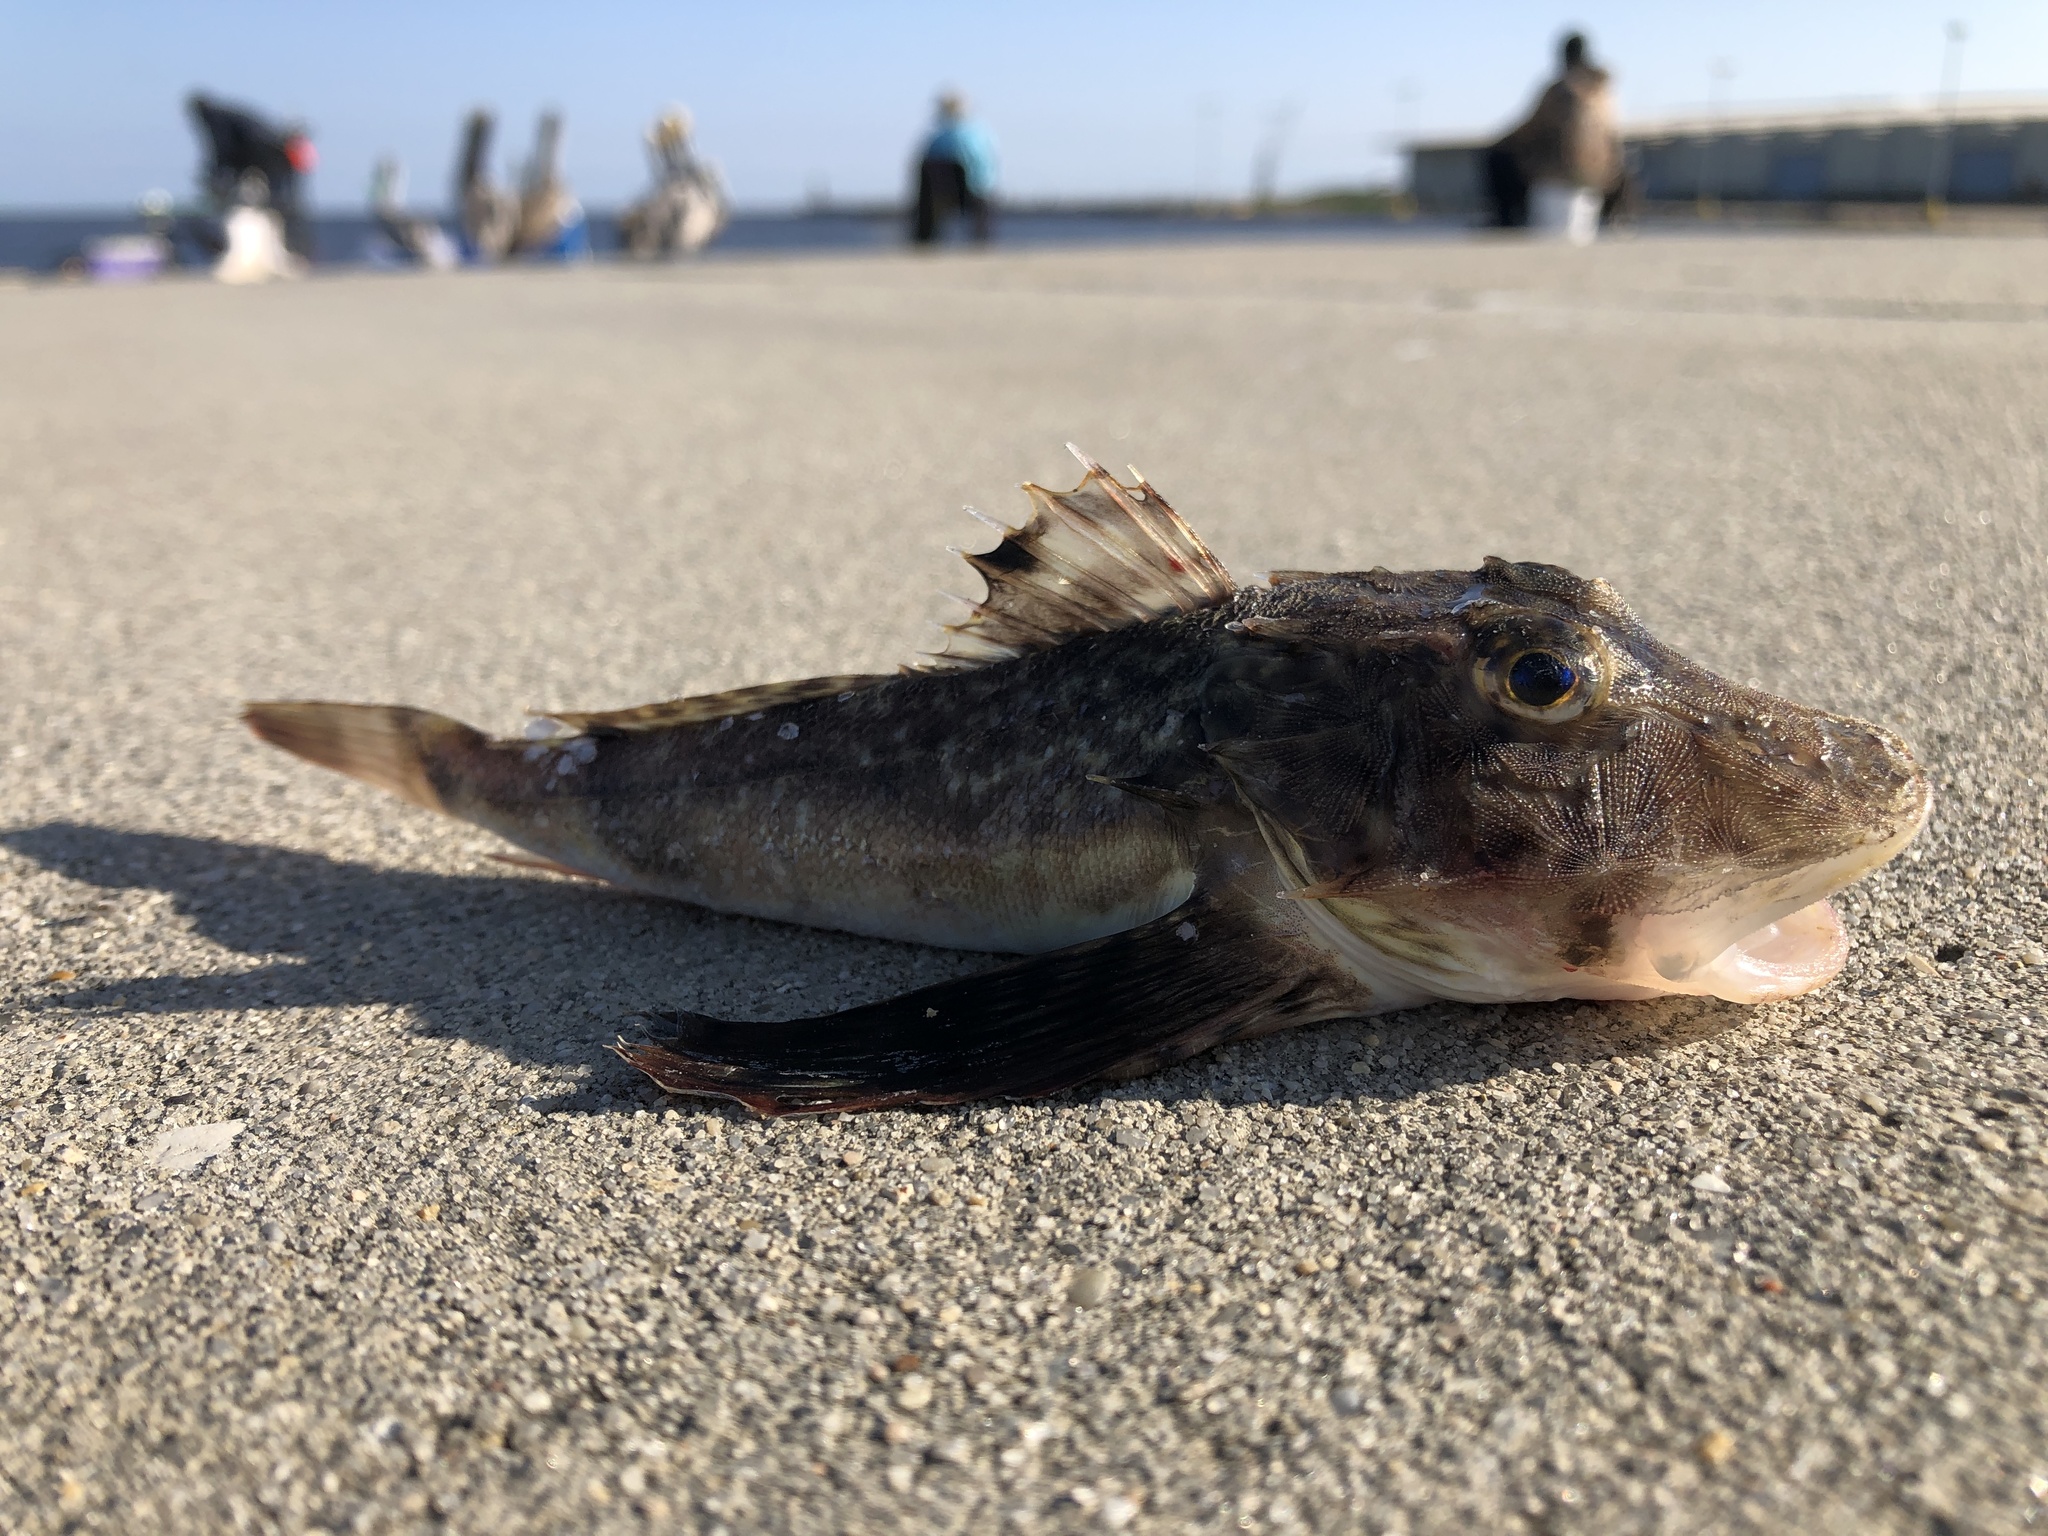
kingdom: Animalia
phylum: Chordata
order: Scorpaeniformes
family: Triglidae
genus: Prionotus
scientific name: Prionotus tribulus
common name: Bighead searobin
